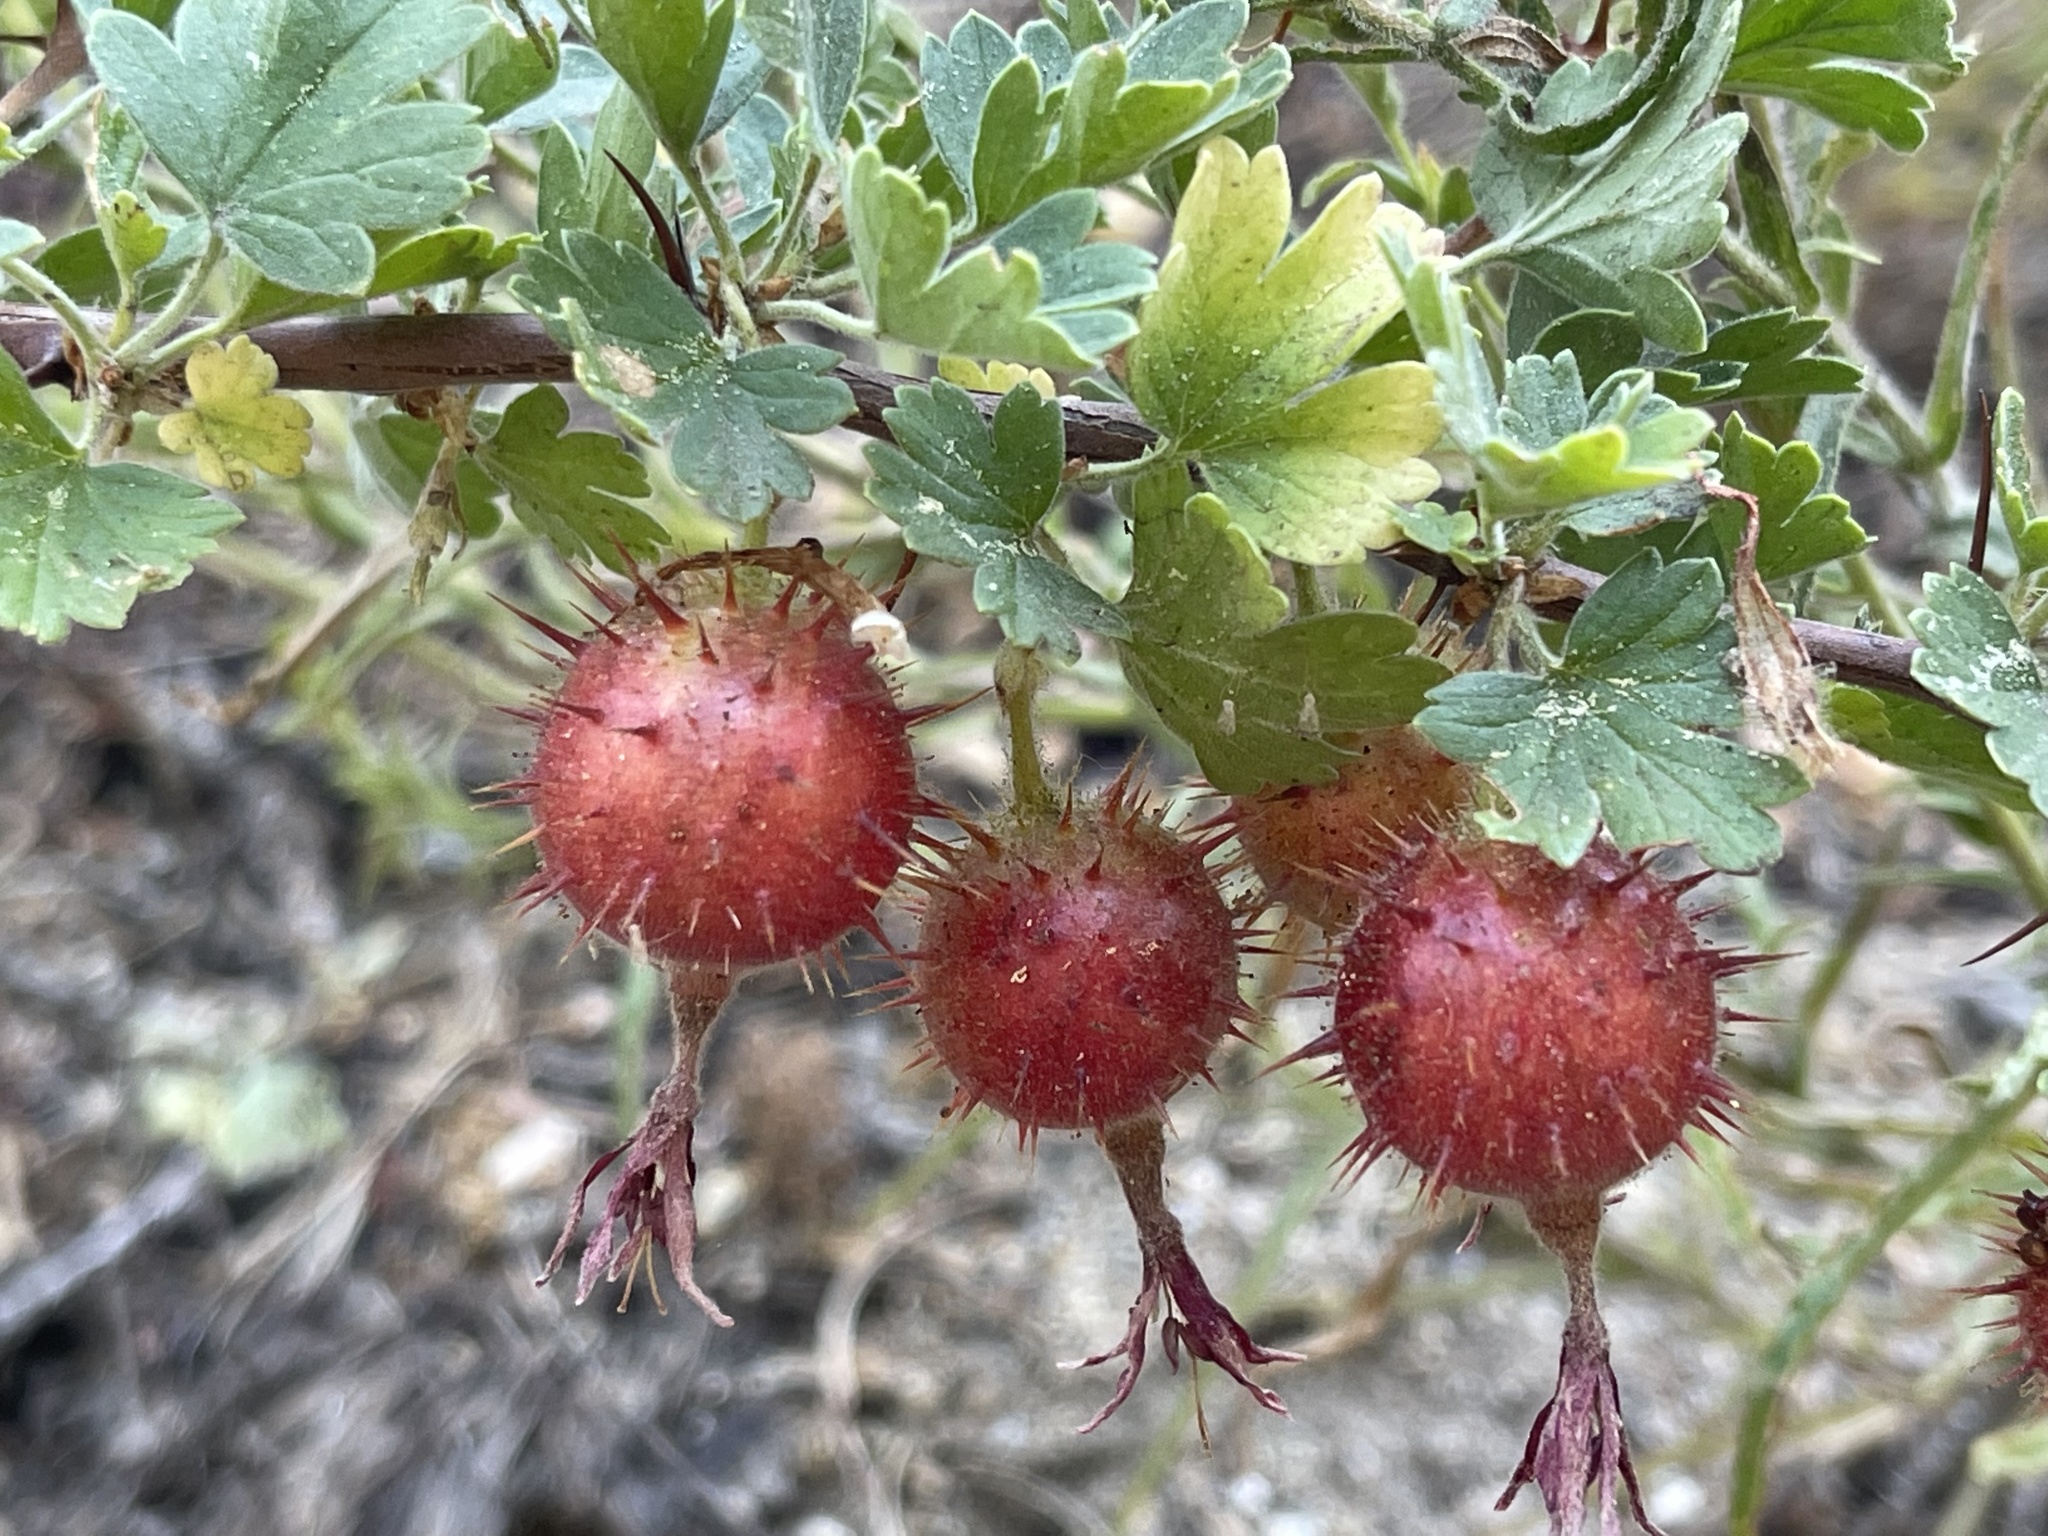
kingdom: Plantae
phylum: Tracheophyta
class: Magnoliopsida
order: Saxifragales
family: Grossulariaceae
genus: Ribes
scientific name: Ribes roezlii
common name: Sierra gooseberry
